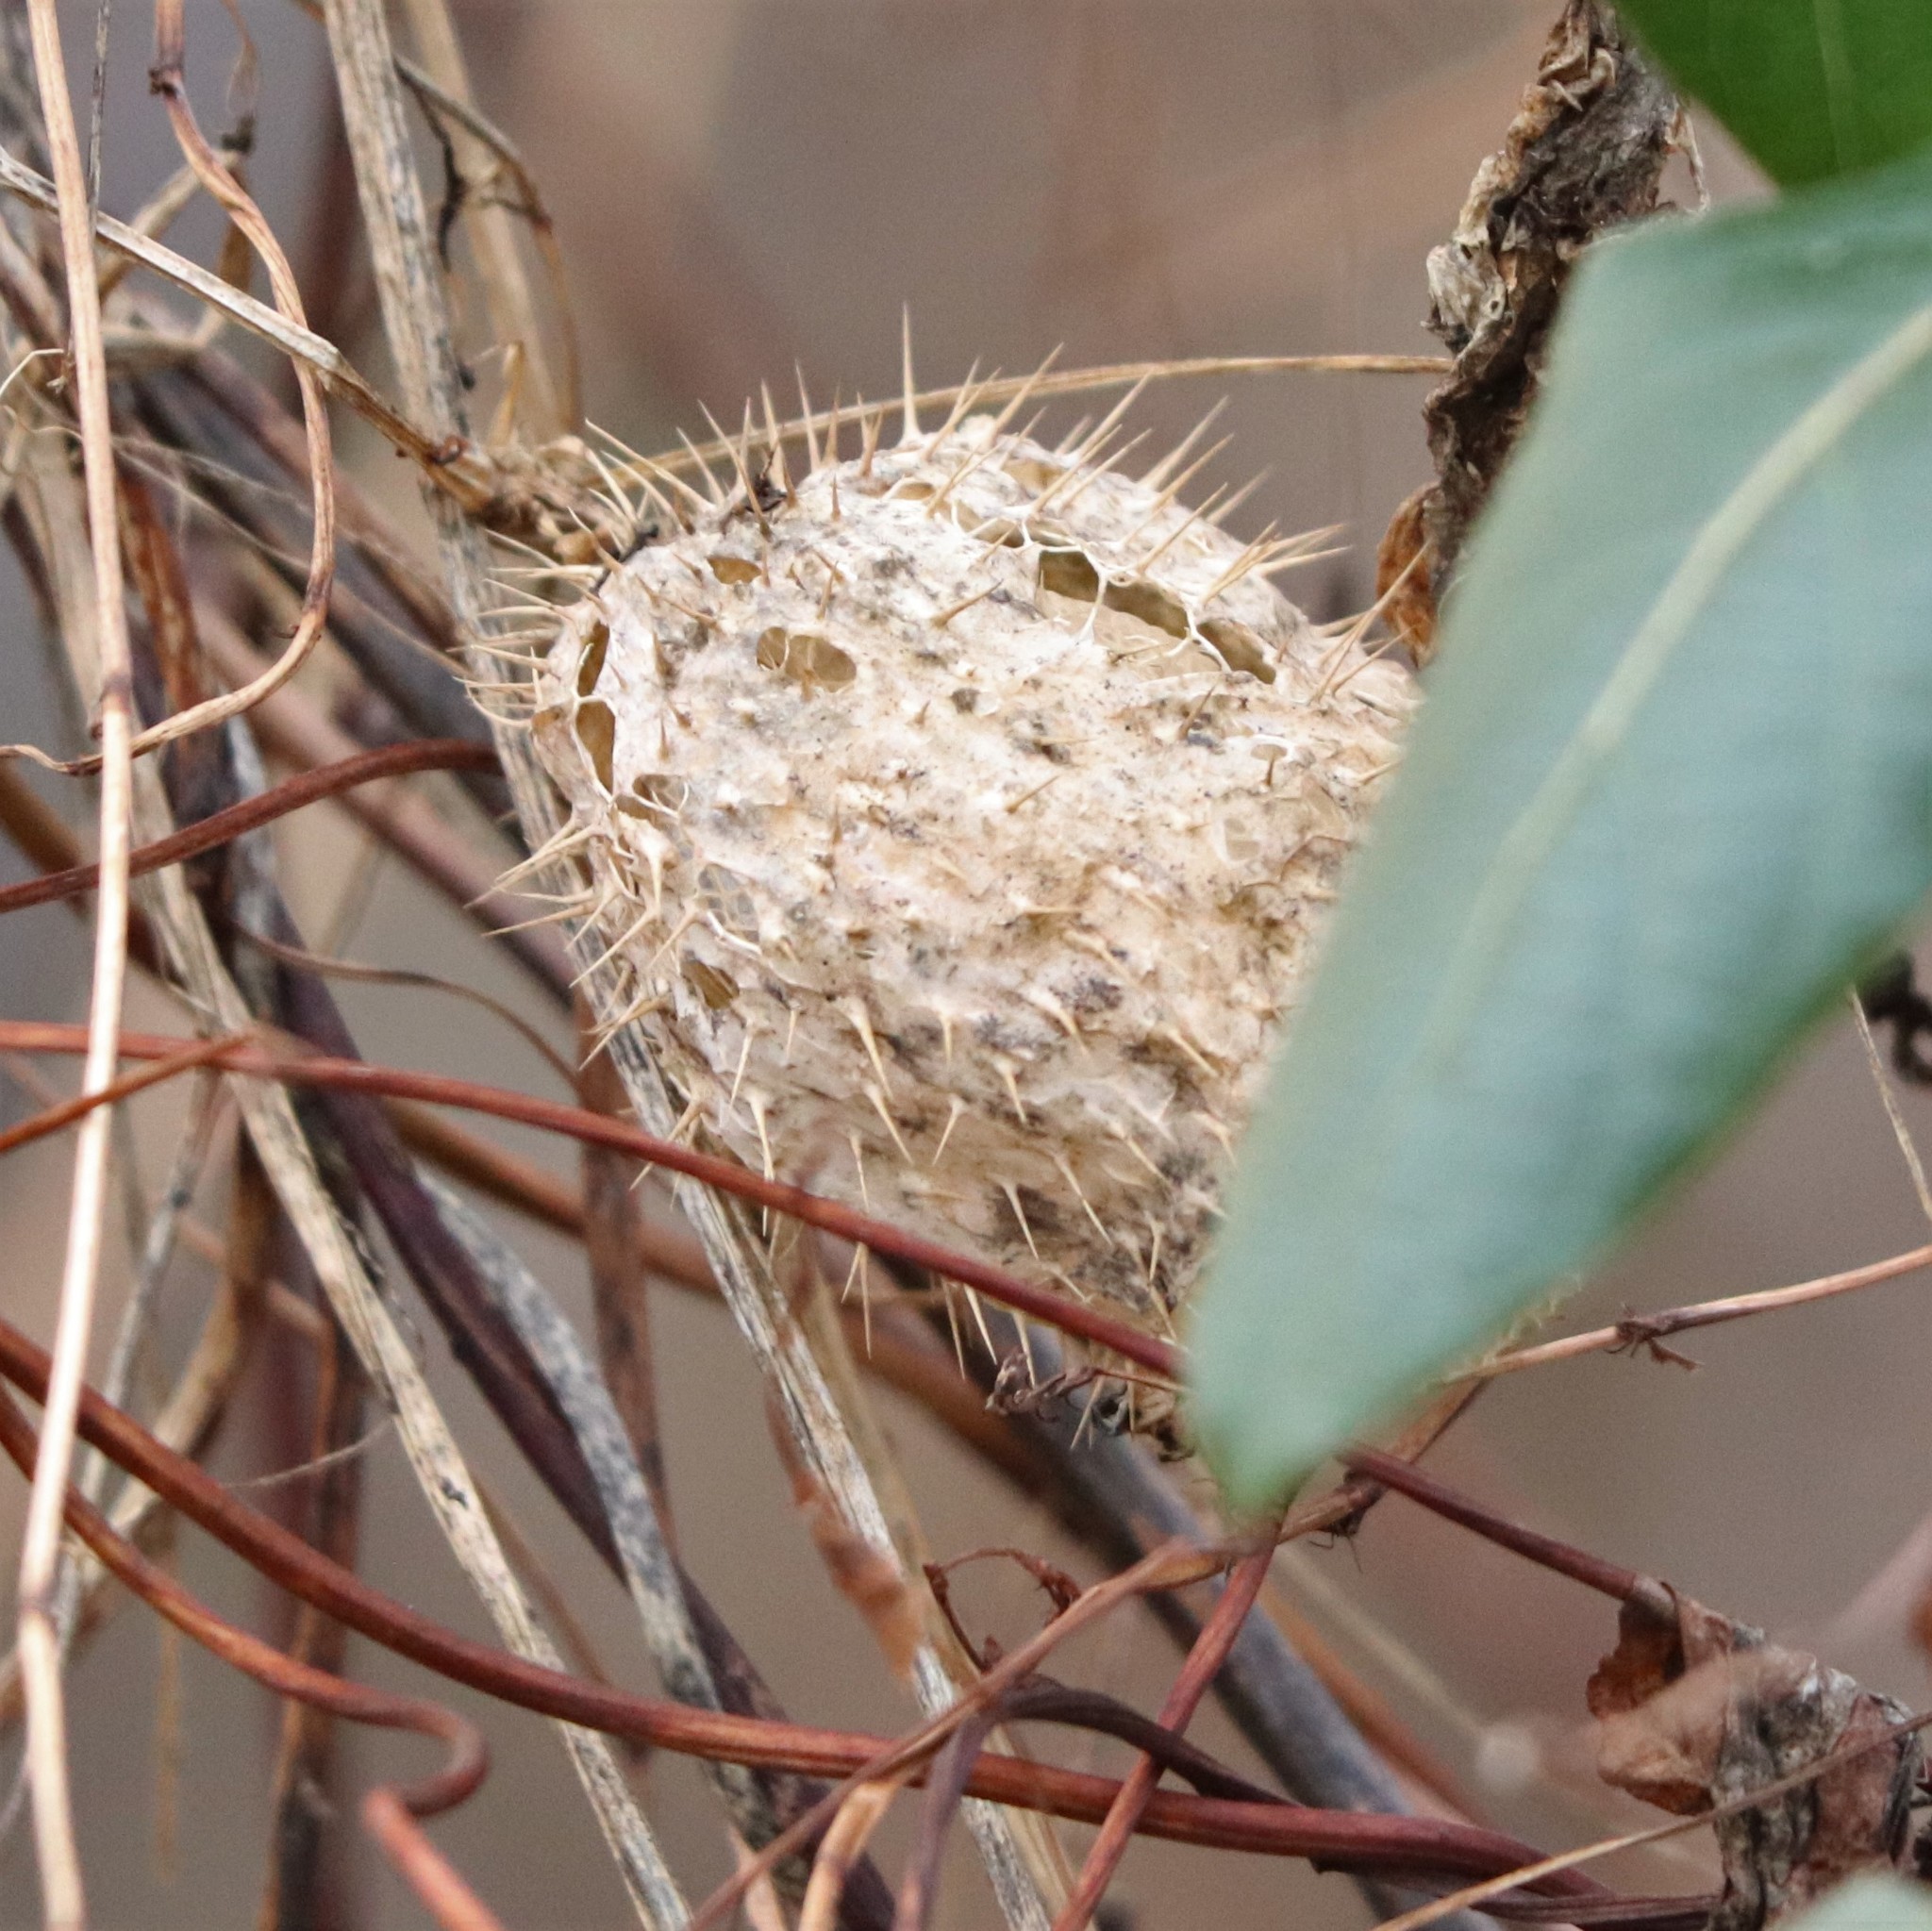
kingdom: Plantae
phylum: Tracheophyta
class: Magnoliopsida
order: Cucurbitales
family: Cucurbitaceae
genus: Echinocystis
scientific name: Echinocystis lobata
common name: Wild cucumber
